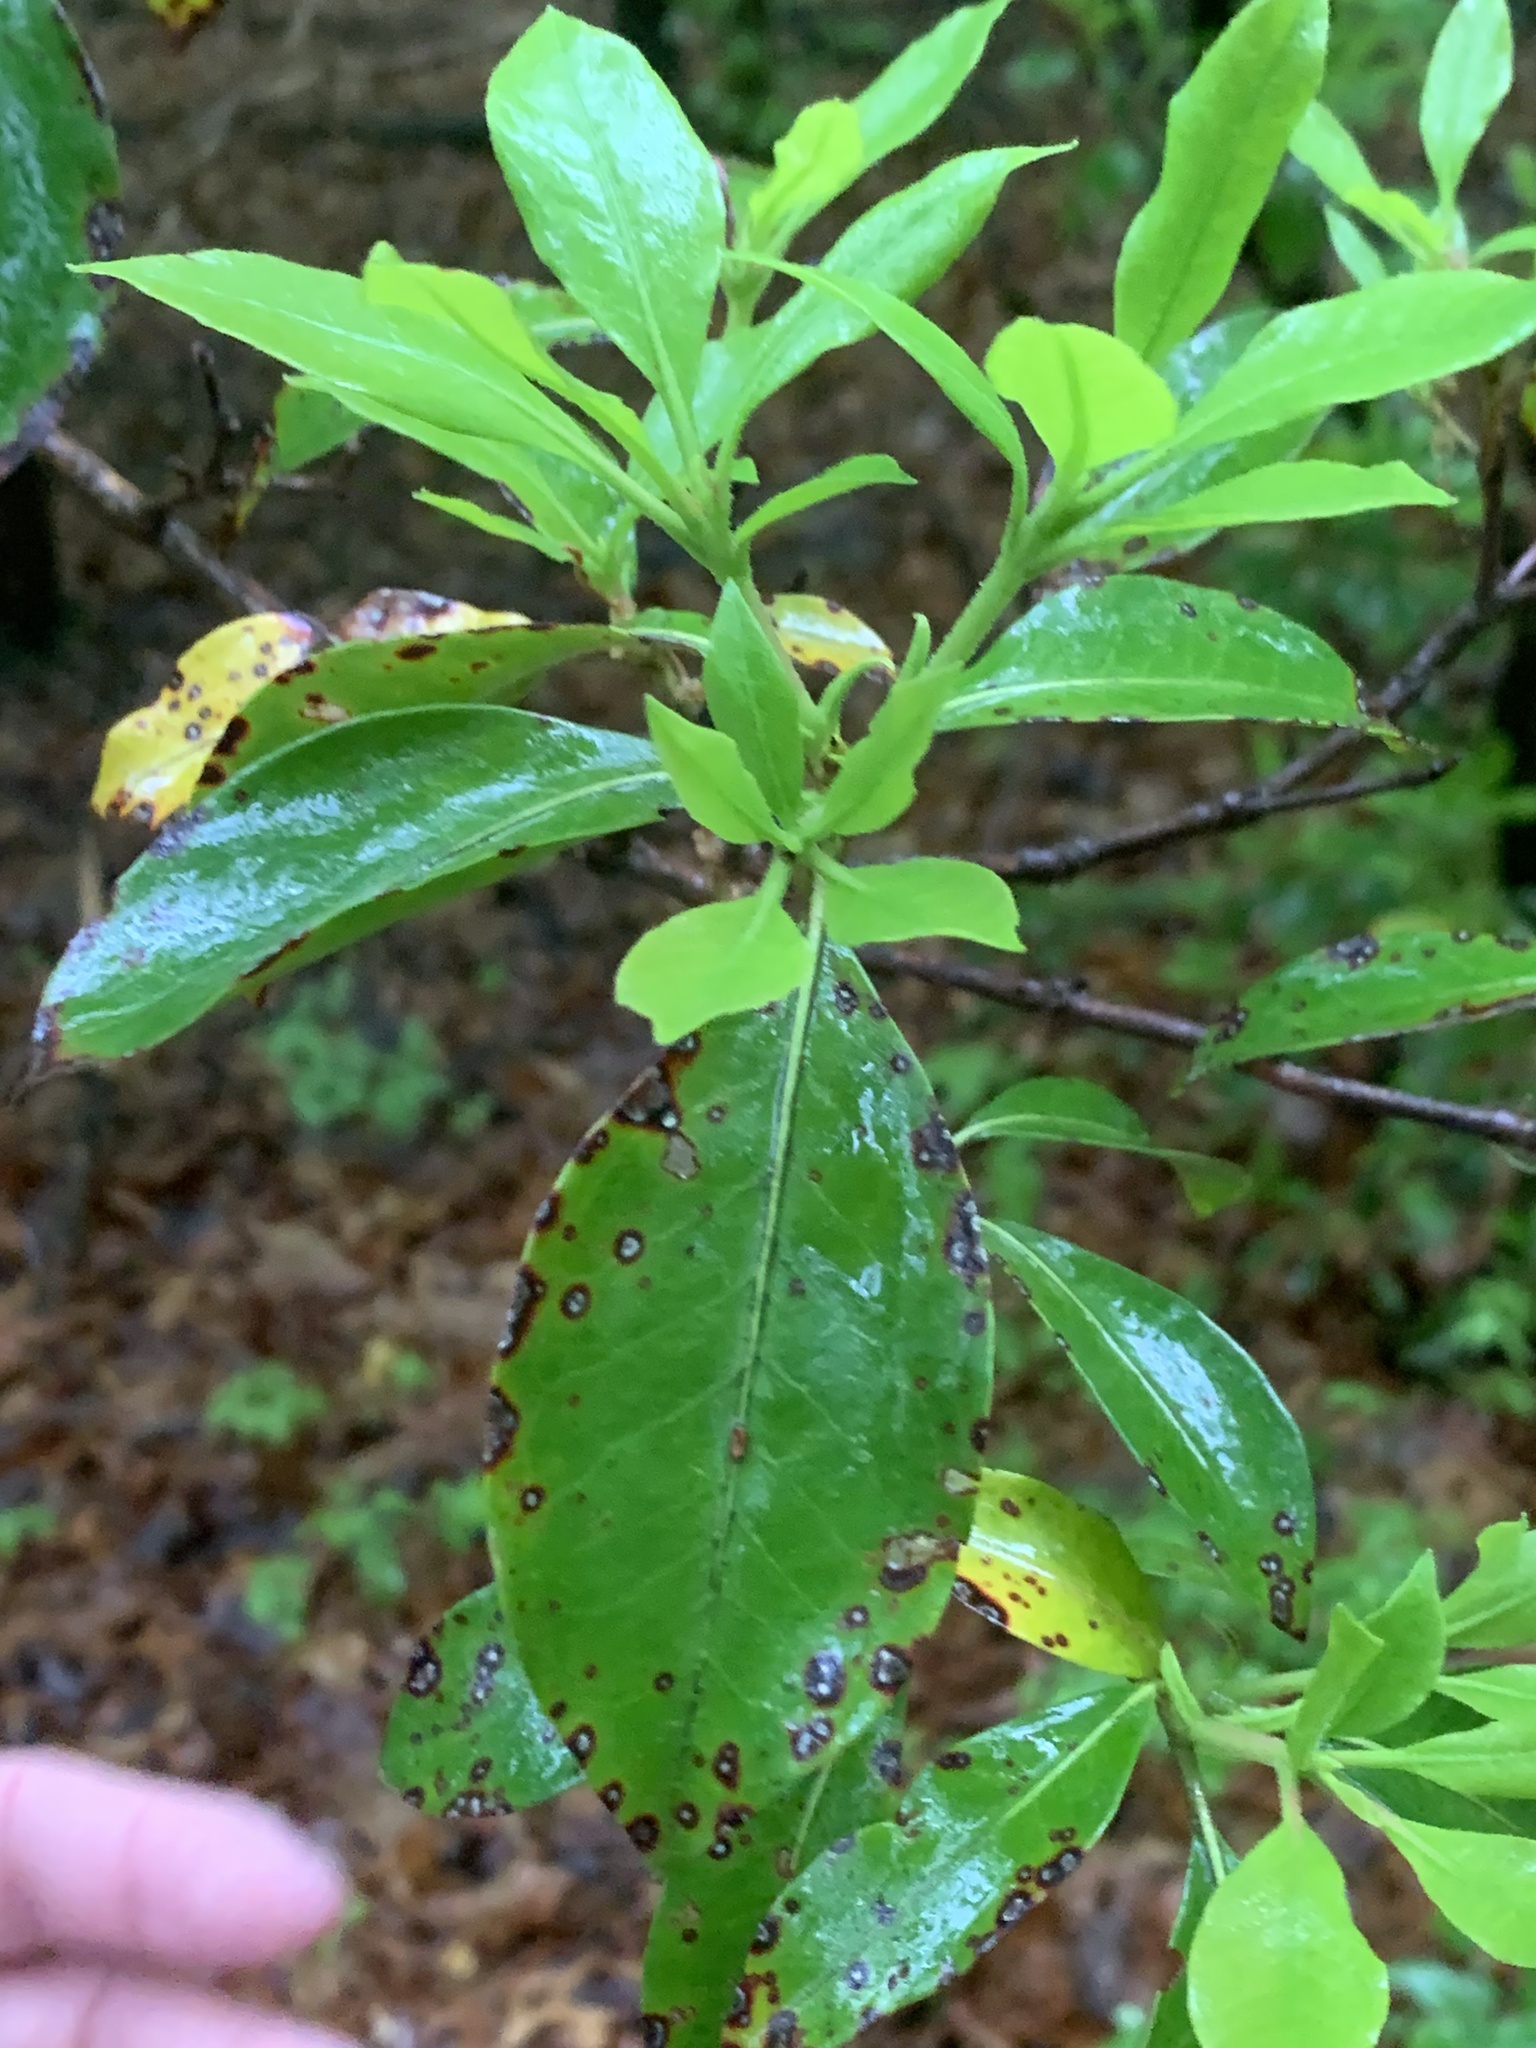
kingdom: Plantae
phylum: Tracheophyta
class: Magnoliopsida
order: Ericales
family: Ericaceae
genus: Kalmia
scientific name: Kalmia latifolia
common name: Mountain-laurel
